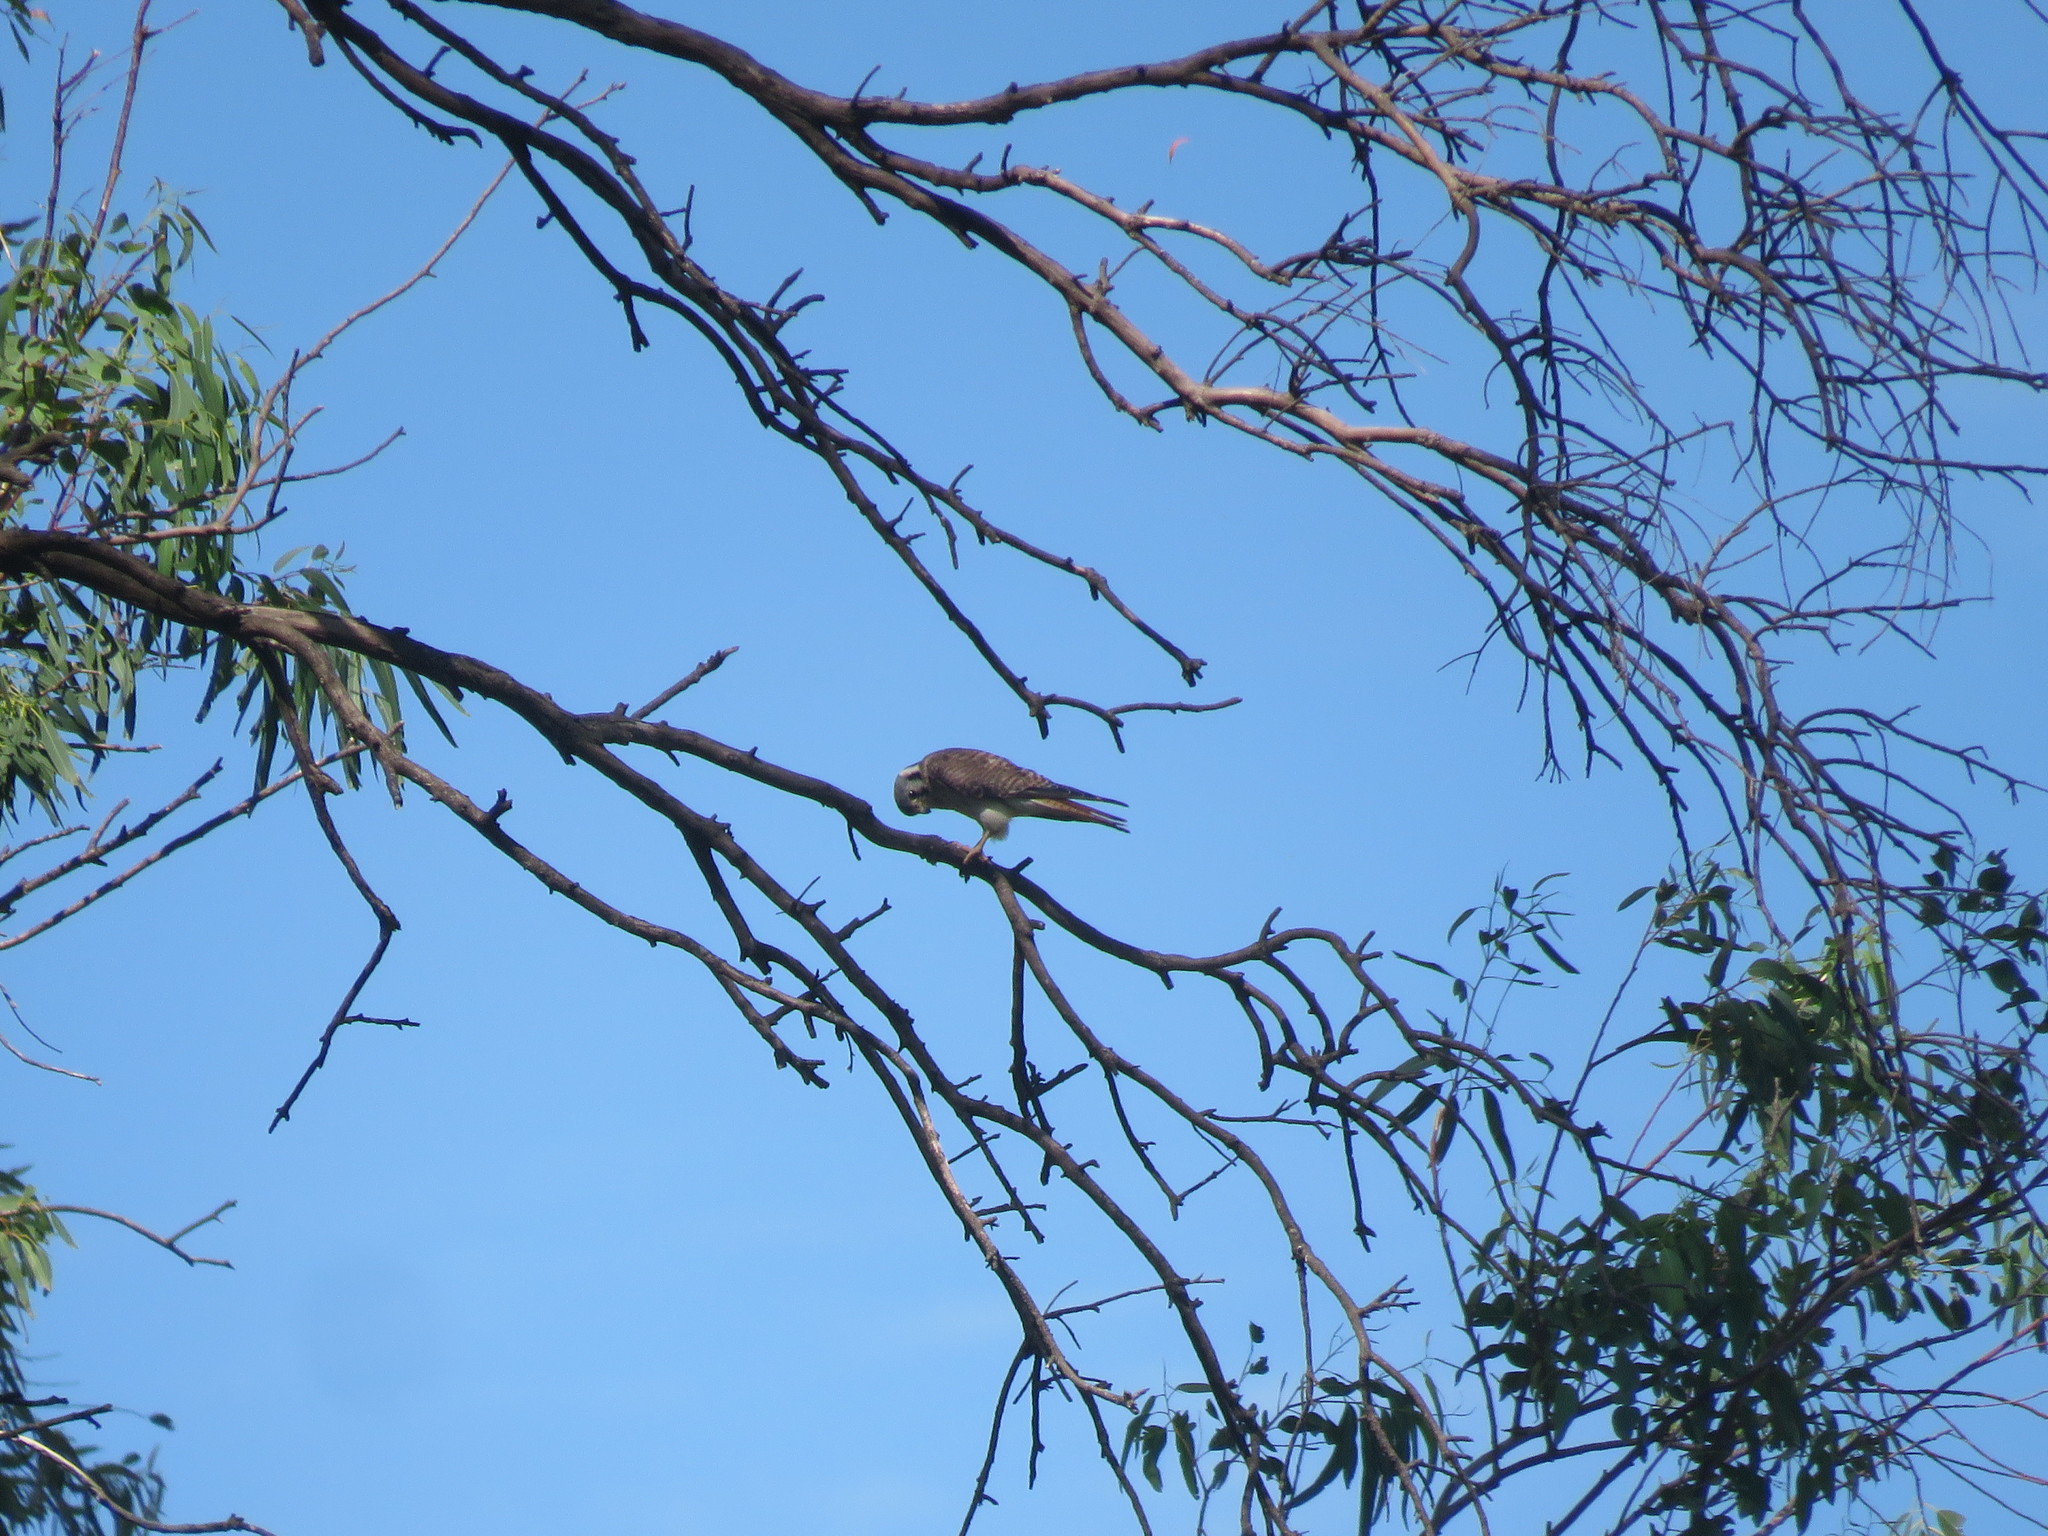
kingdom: Animalia
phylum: Chordata
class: Aves
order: Falconiformes
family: Falconidae
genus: Falco
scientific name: Falco sparverius
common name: American kestrel
